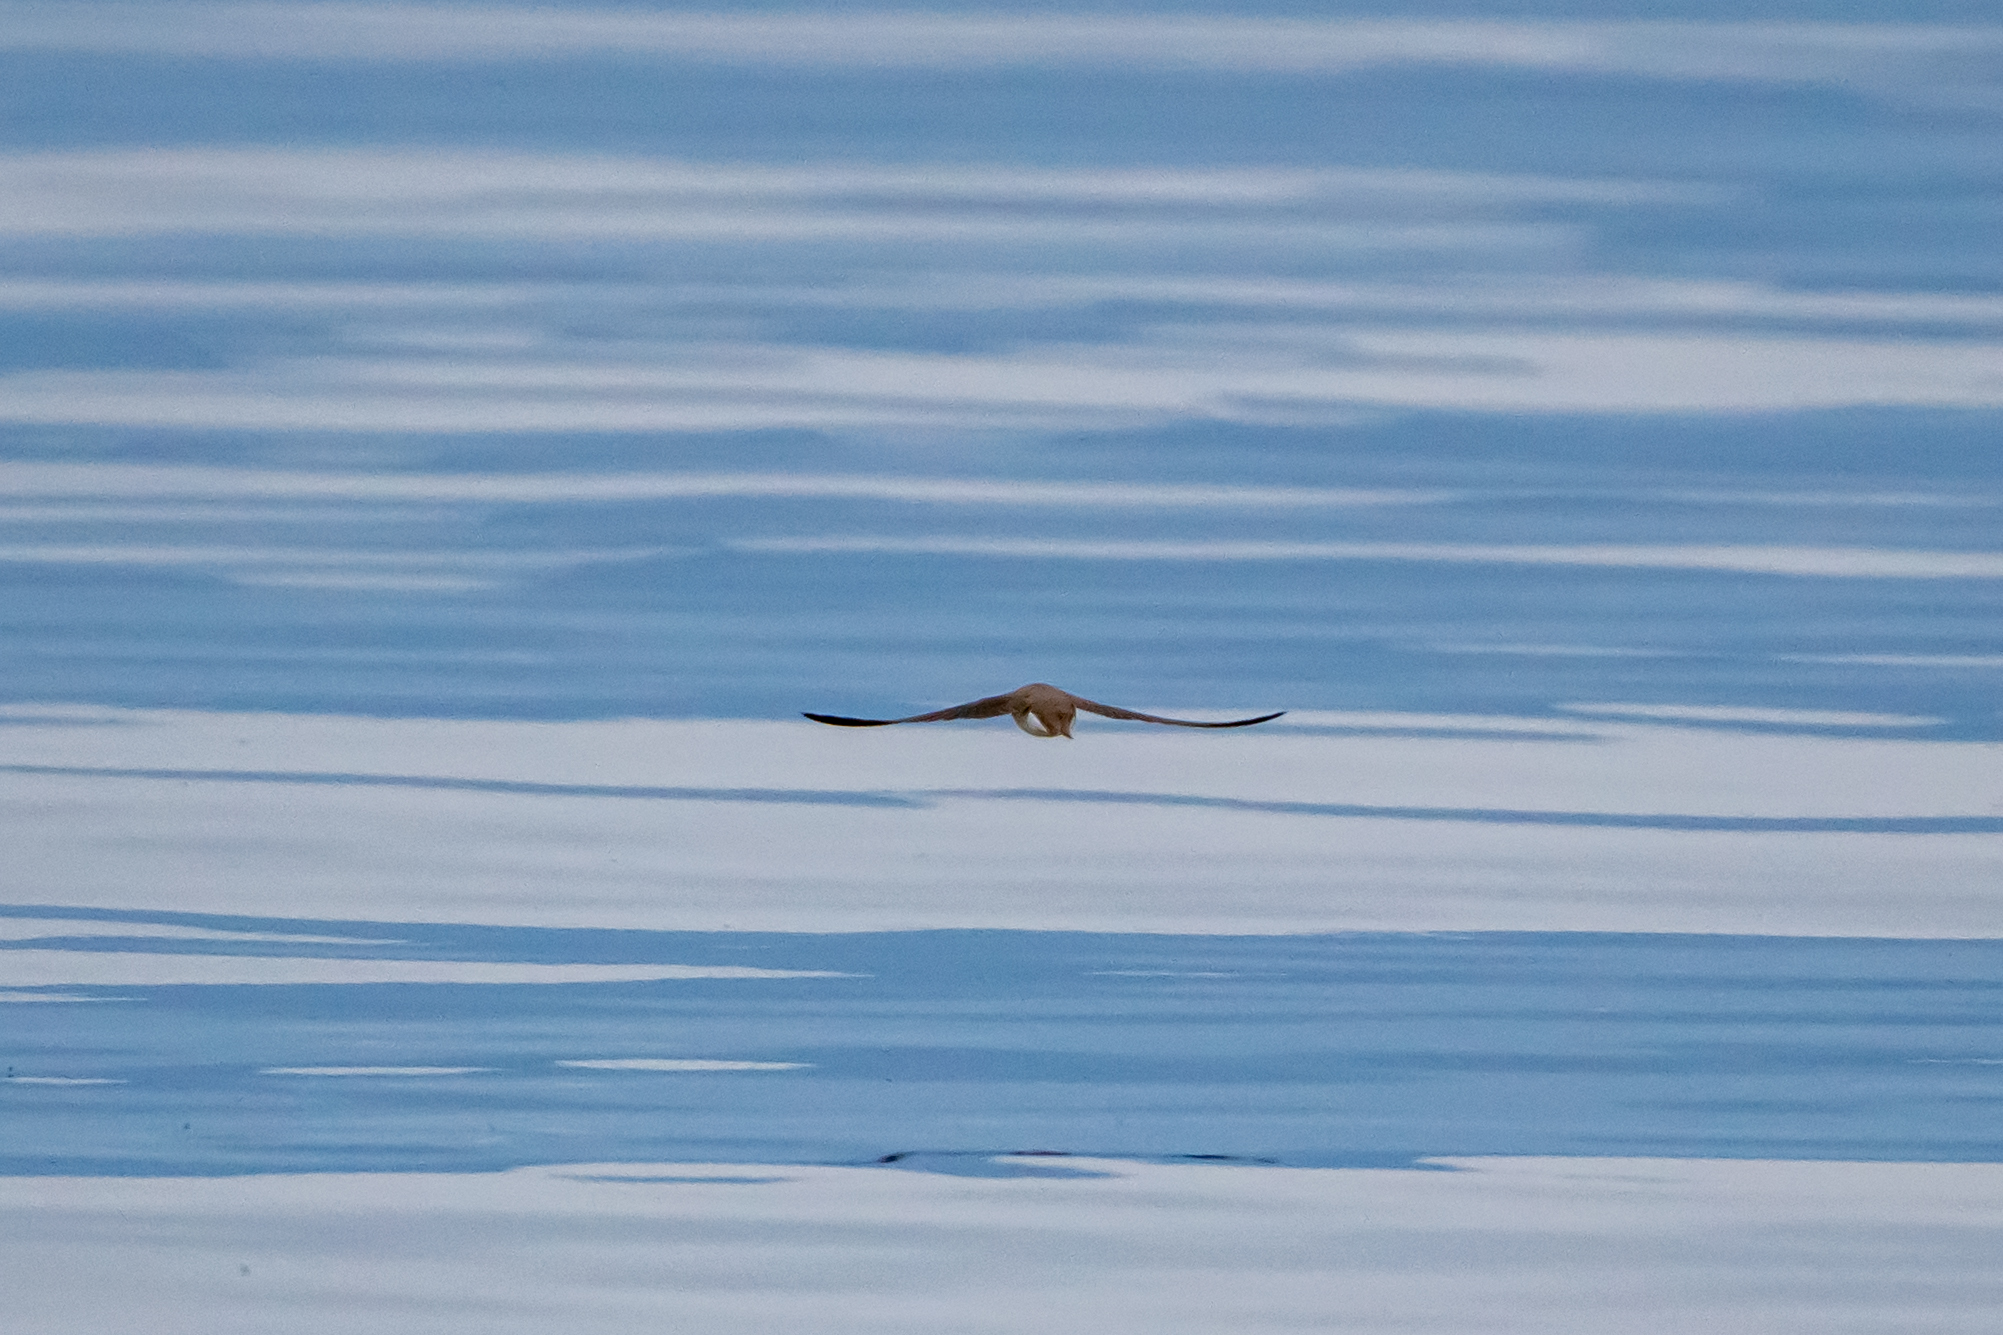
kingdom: Animalia
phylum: Chordata
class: Aves
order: Passeriformes
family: Hirundinidae
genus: Riparia
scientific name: Riparia riparia
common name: Sand martin
